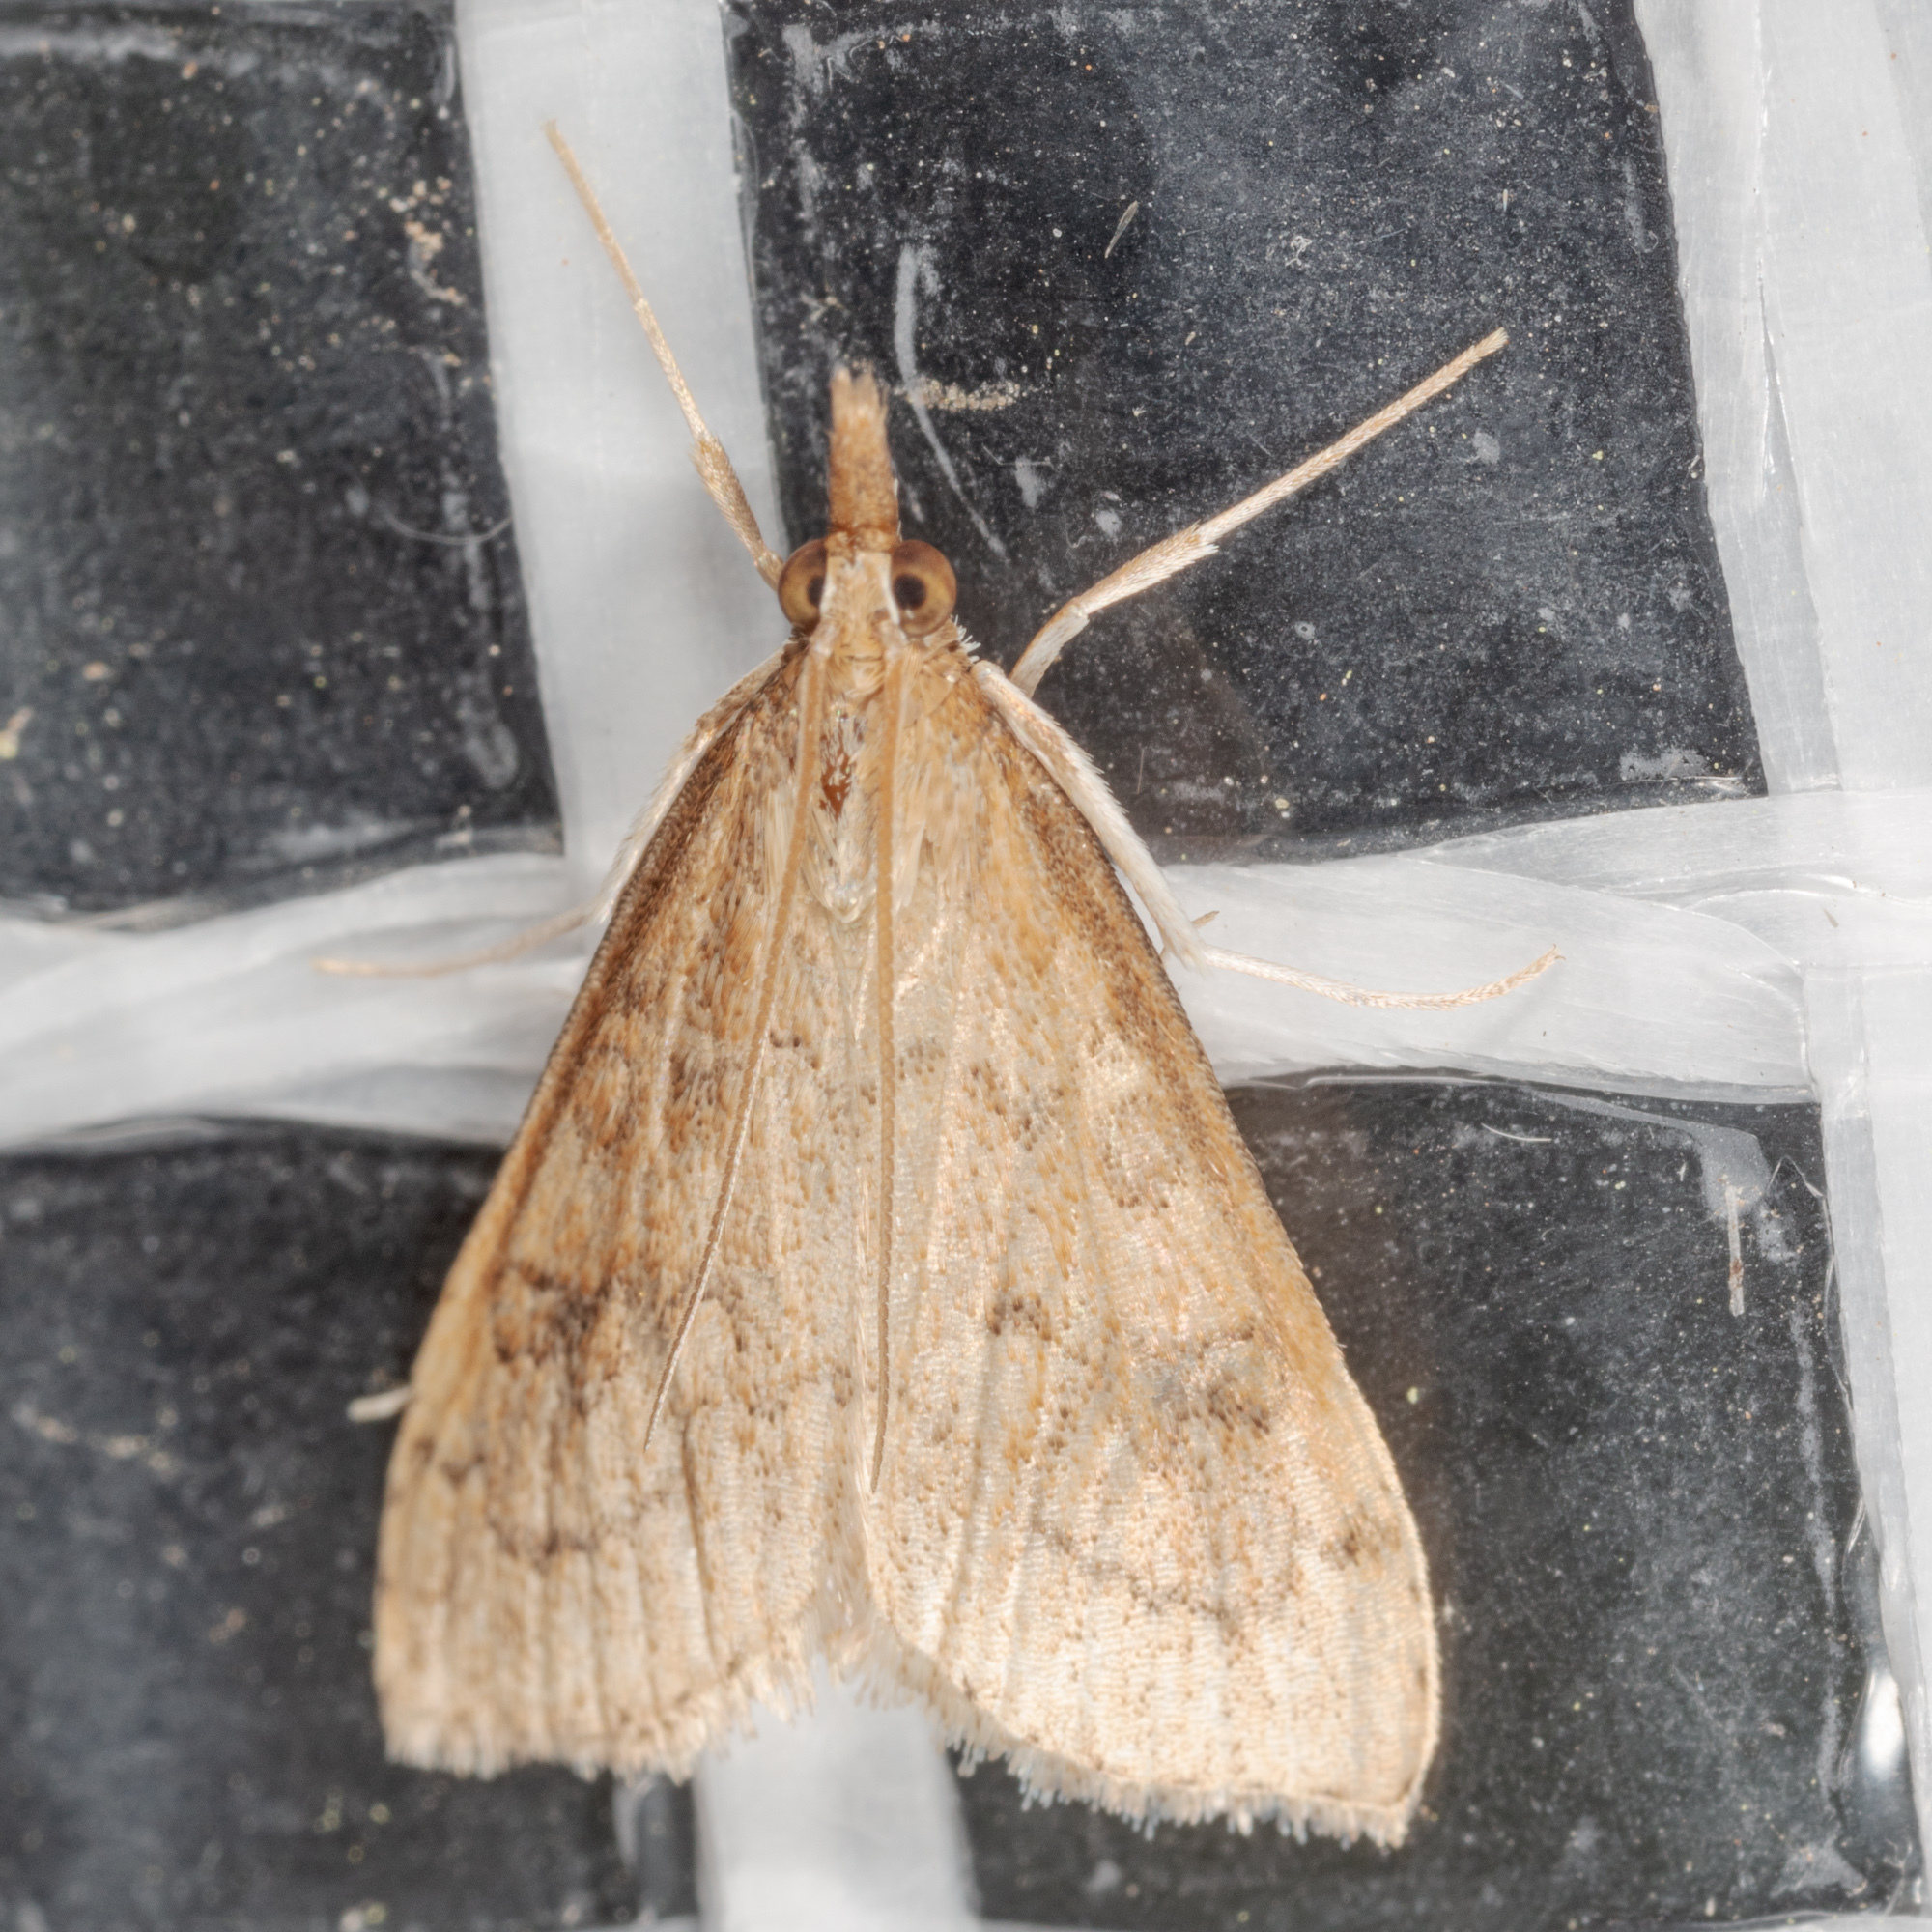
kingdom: Animalia
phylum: Arthropoda
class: Insecta
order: Lepidoptera
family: Crambidae
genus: Udea
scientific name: Udea rubigalis
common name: Celery leaftier moth
